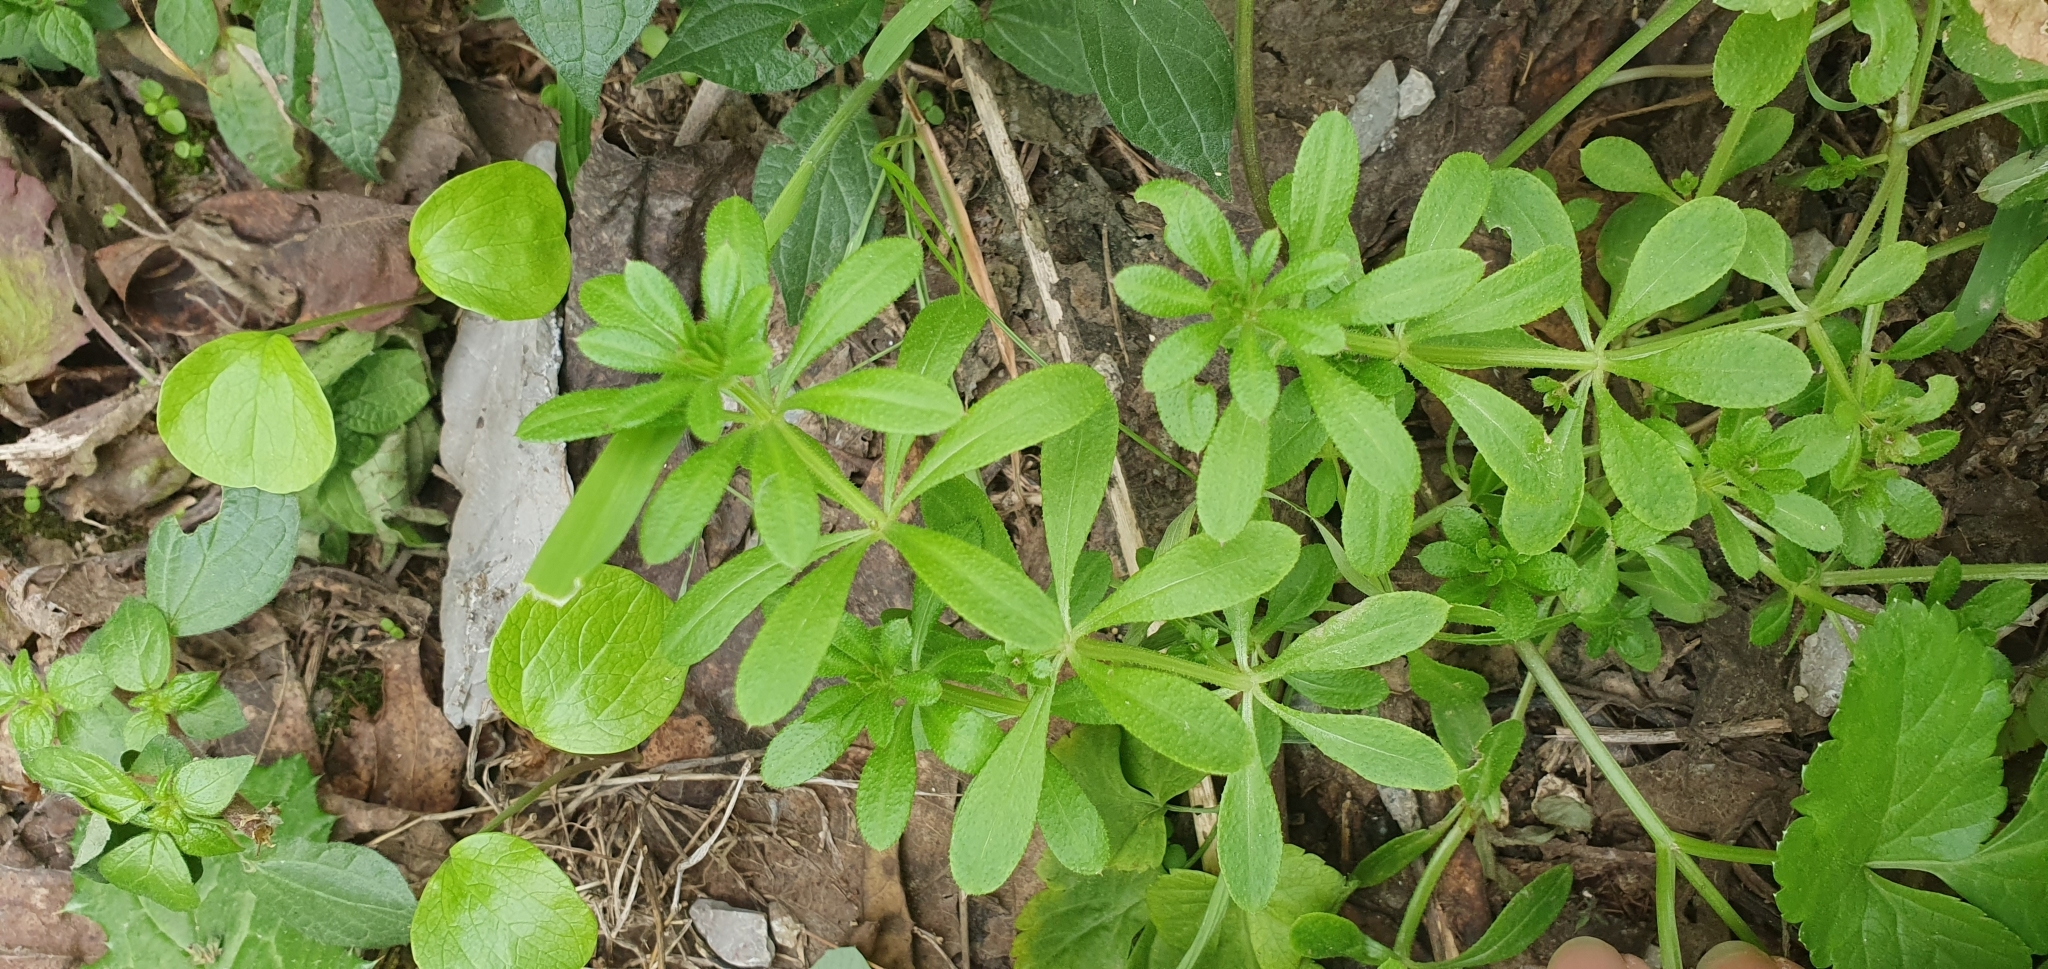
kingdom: Plantae
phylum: Tracheophyta
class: Magnoliopsida
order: Gentianales
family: Rubiaceae
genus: Galium
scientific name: Galium aparine
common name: Cleavers
